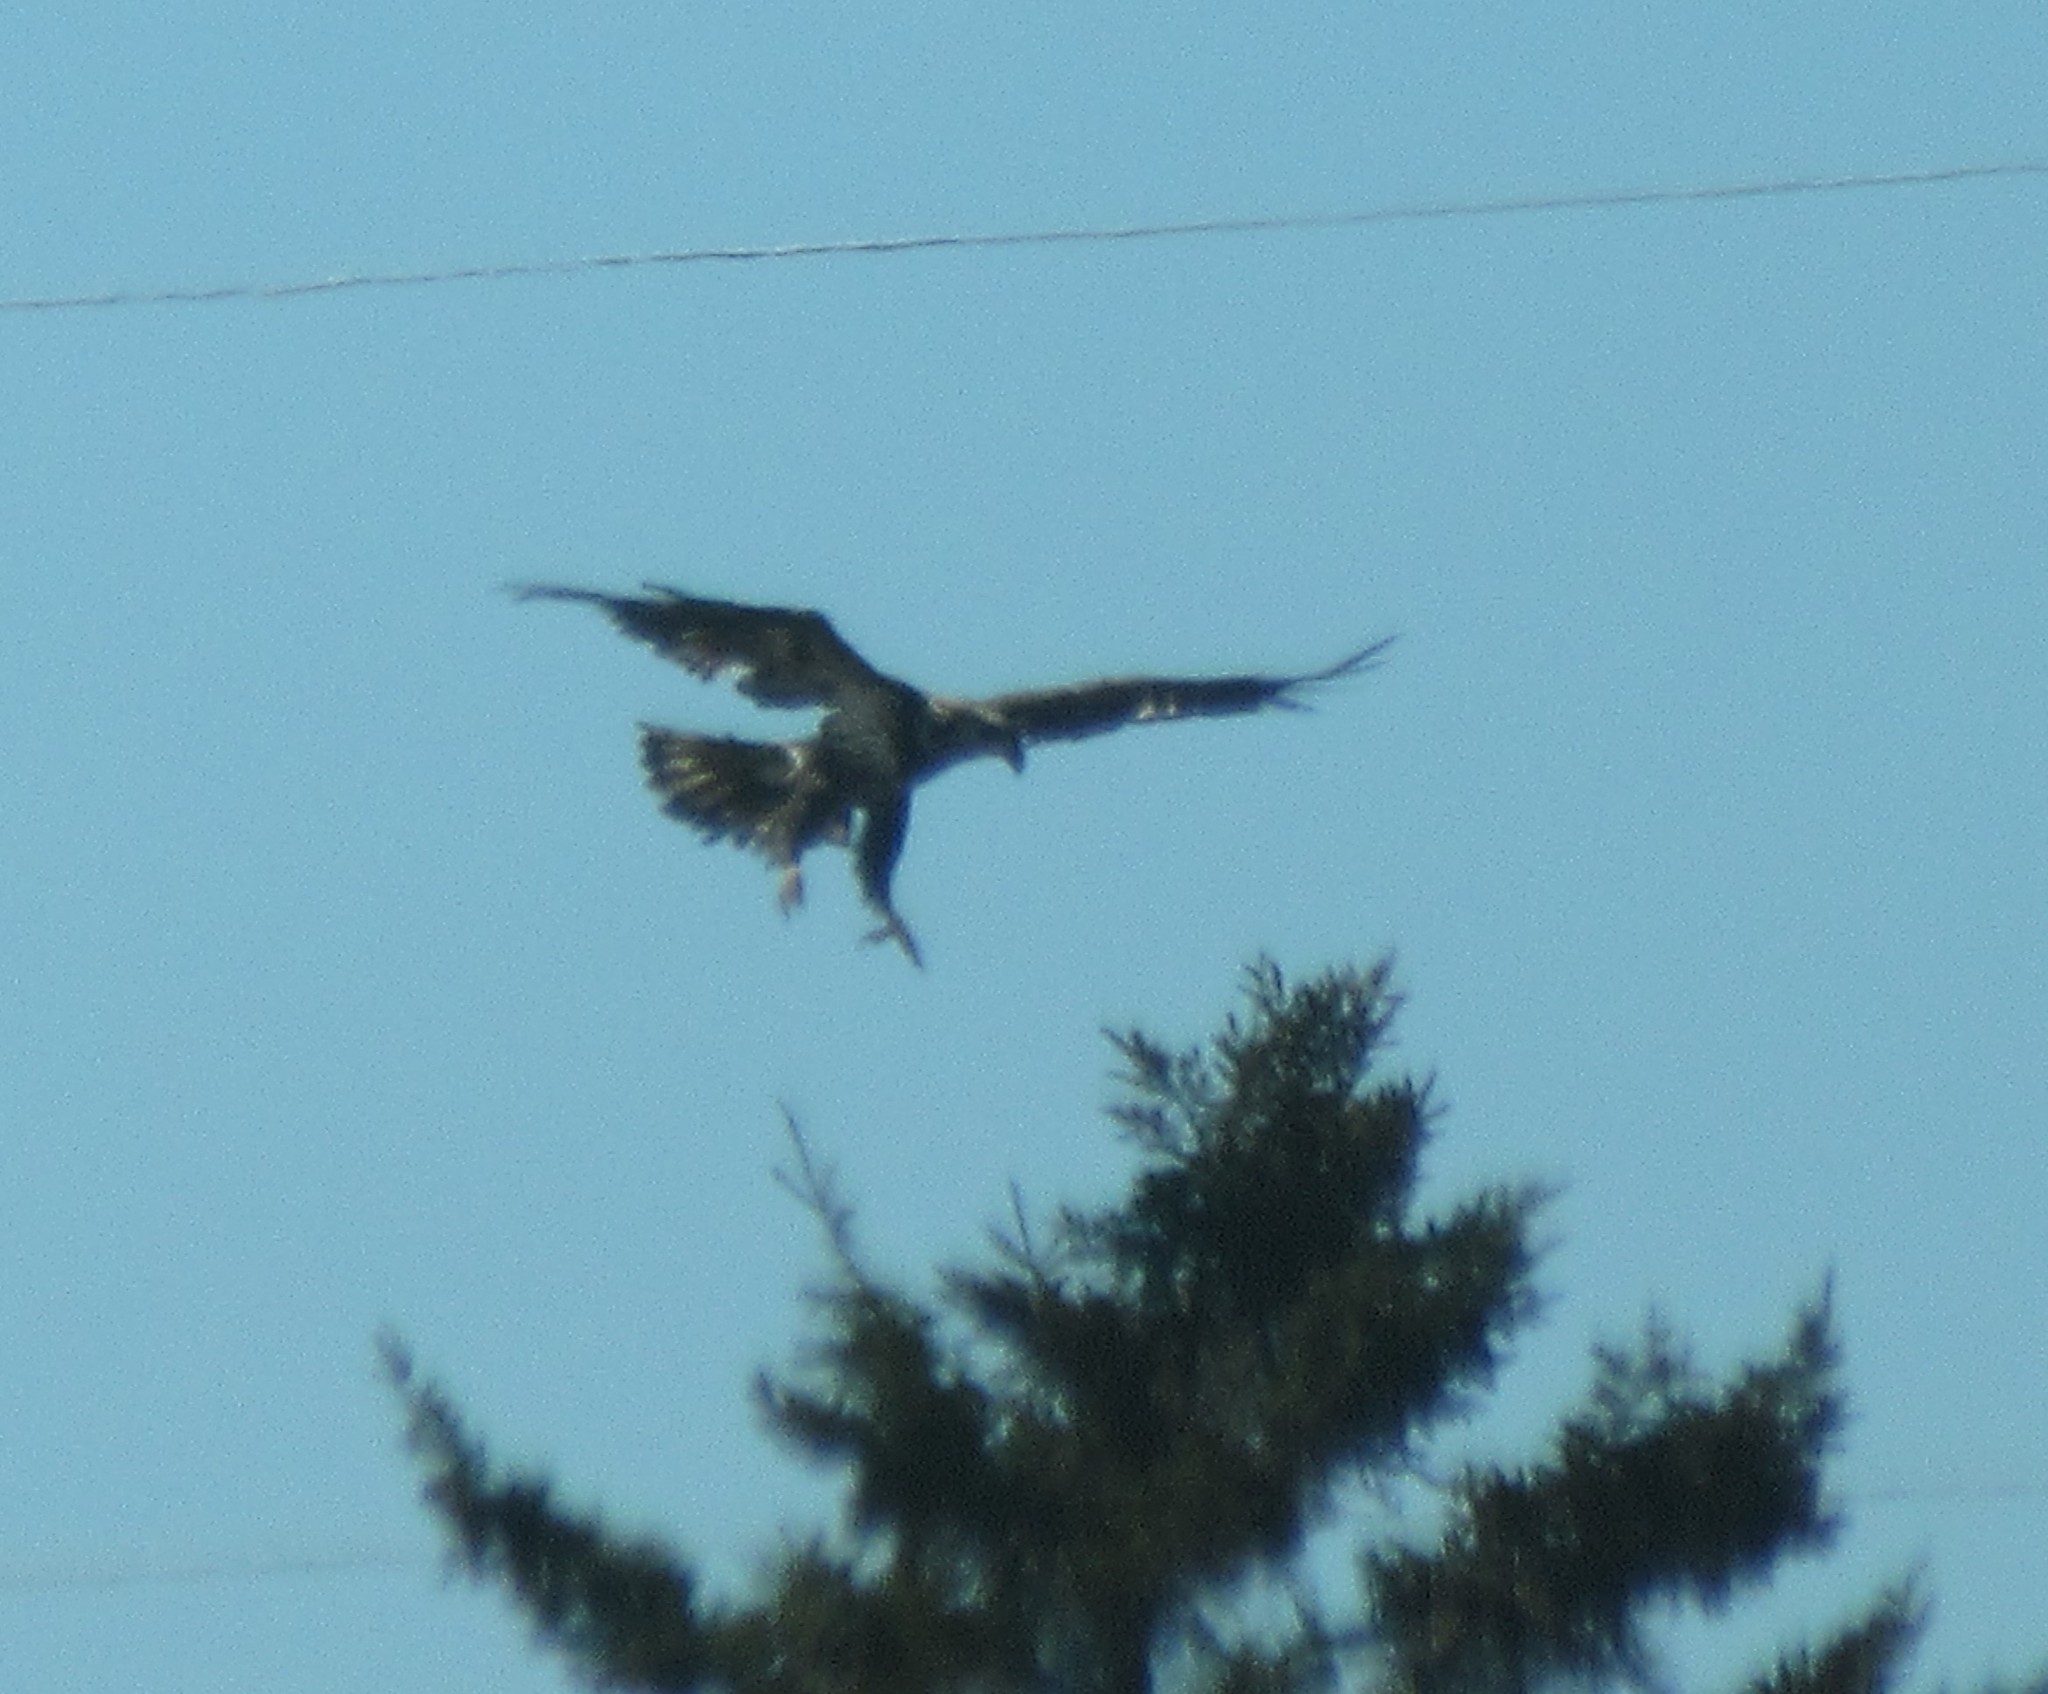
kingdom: Animalia
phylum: Chordata
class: Aves
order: Accipitriformes
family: Accipitridae
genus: Haliaeetus
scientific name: Haliaeetus leucocephalus
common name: Bald eagle
